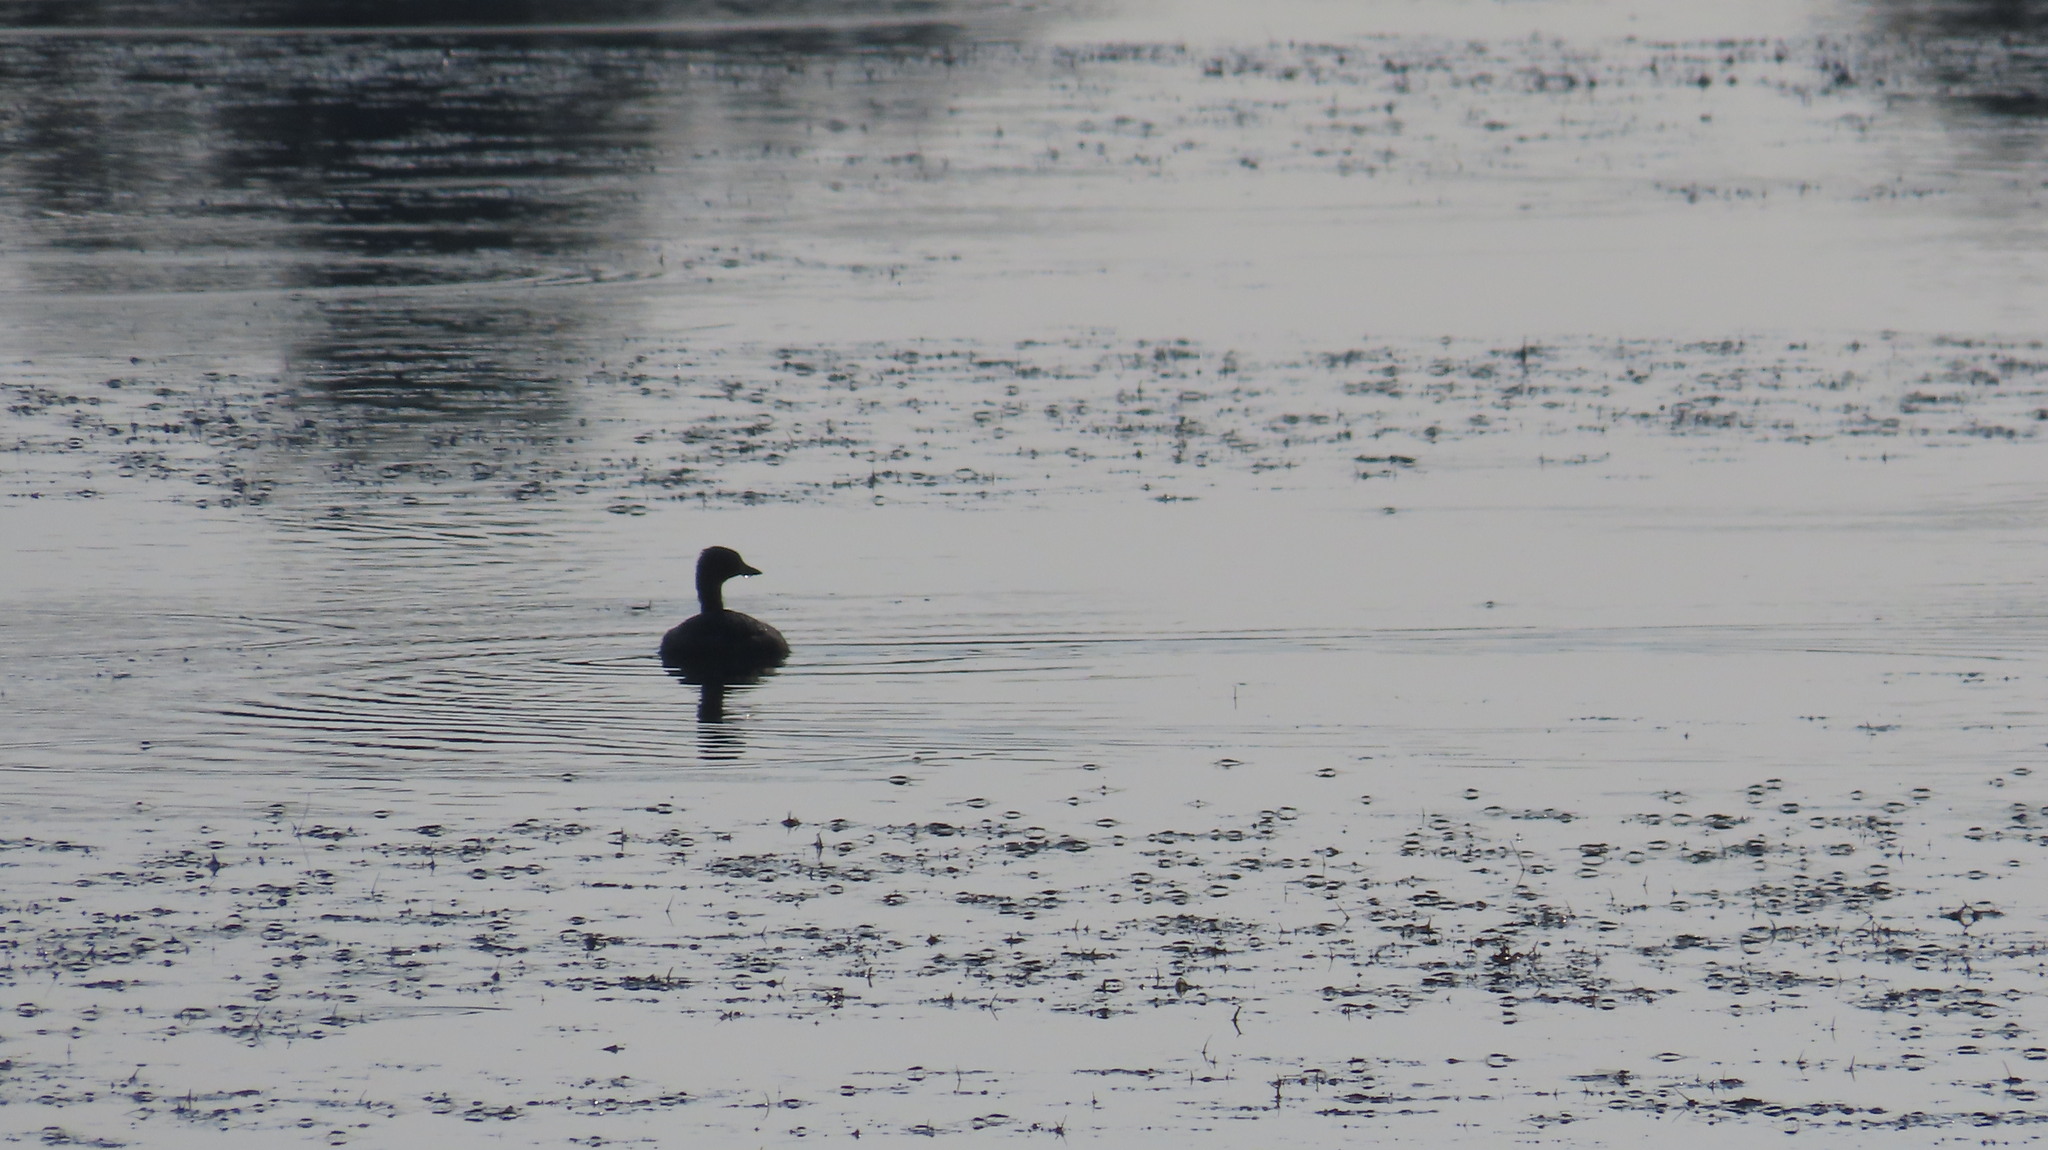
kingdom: Animalia
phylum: Chordata
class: Aves
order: Podicipediformes
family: Podicipedidae
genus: Tachybaptus
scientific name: Tachybaptus ruficollis
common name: Little grebe
